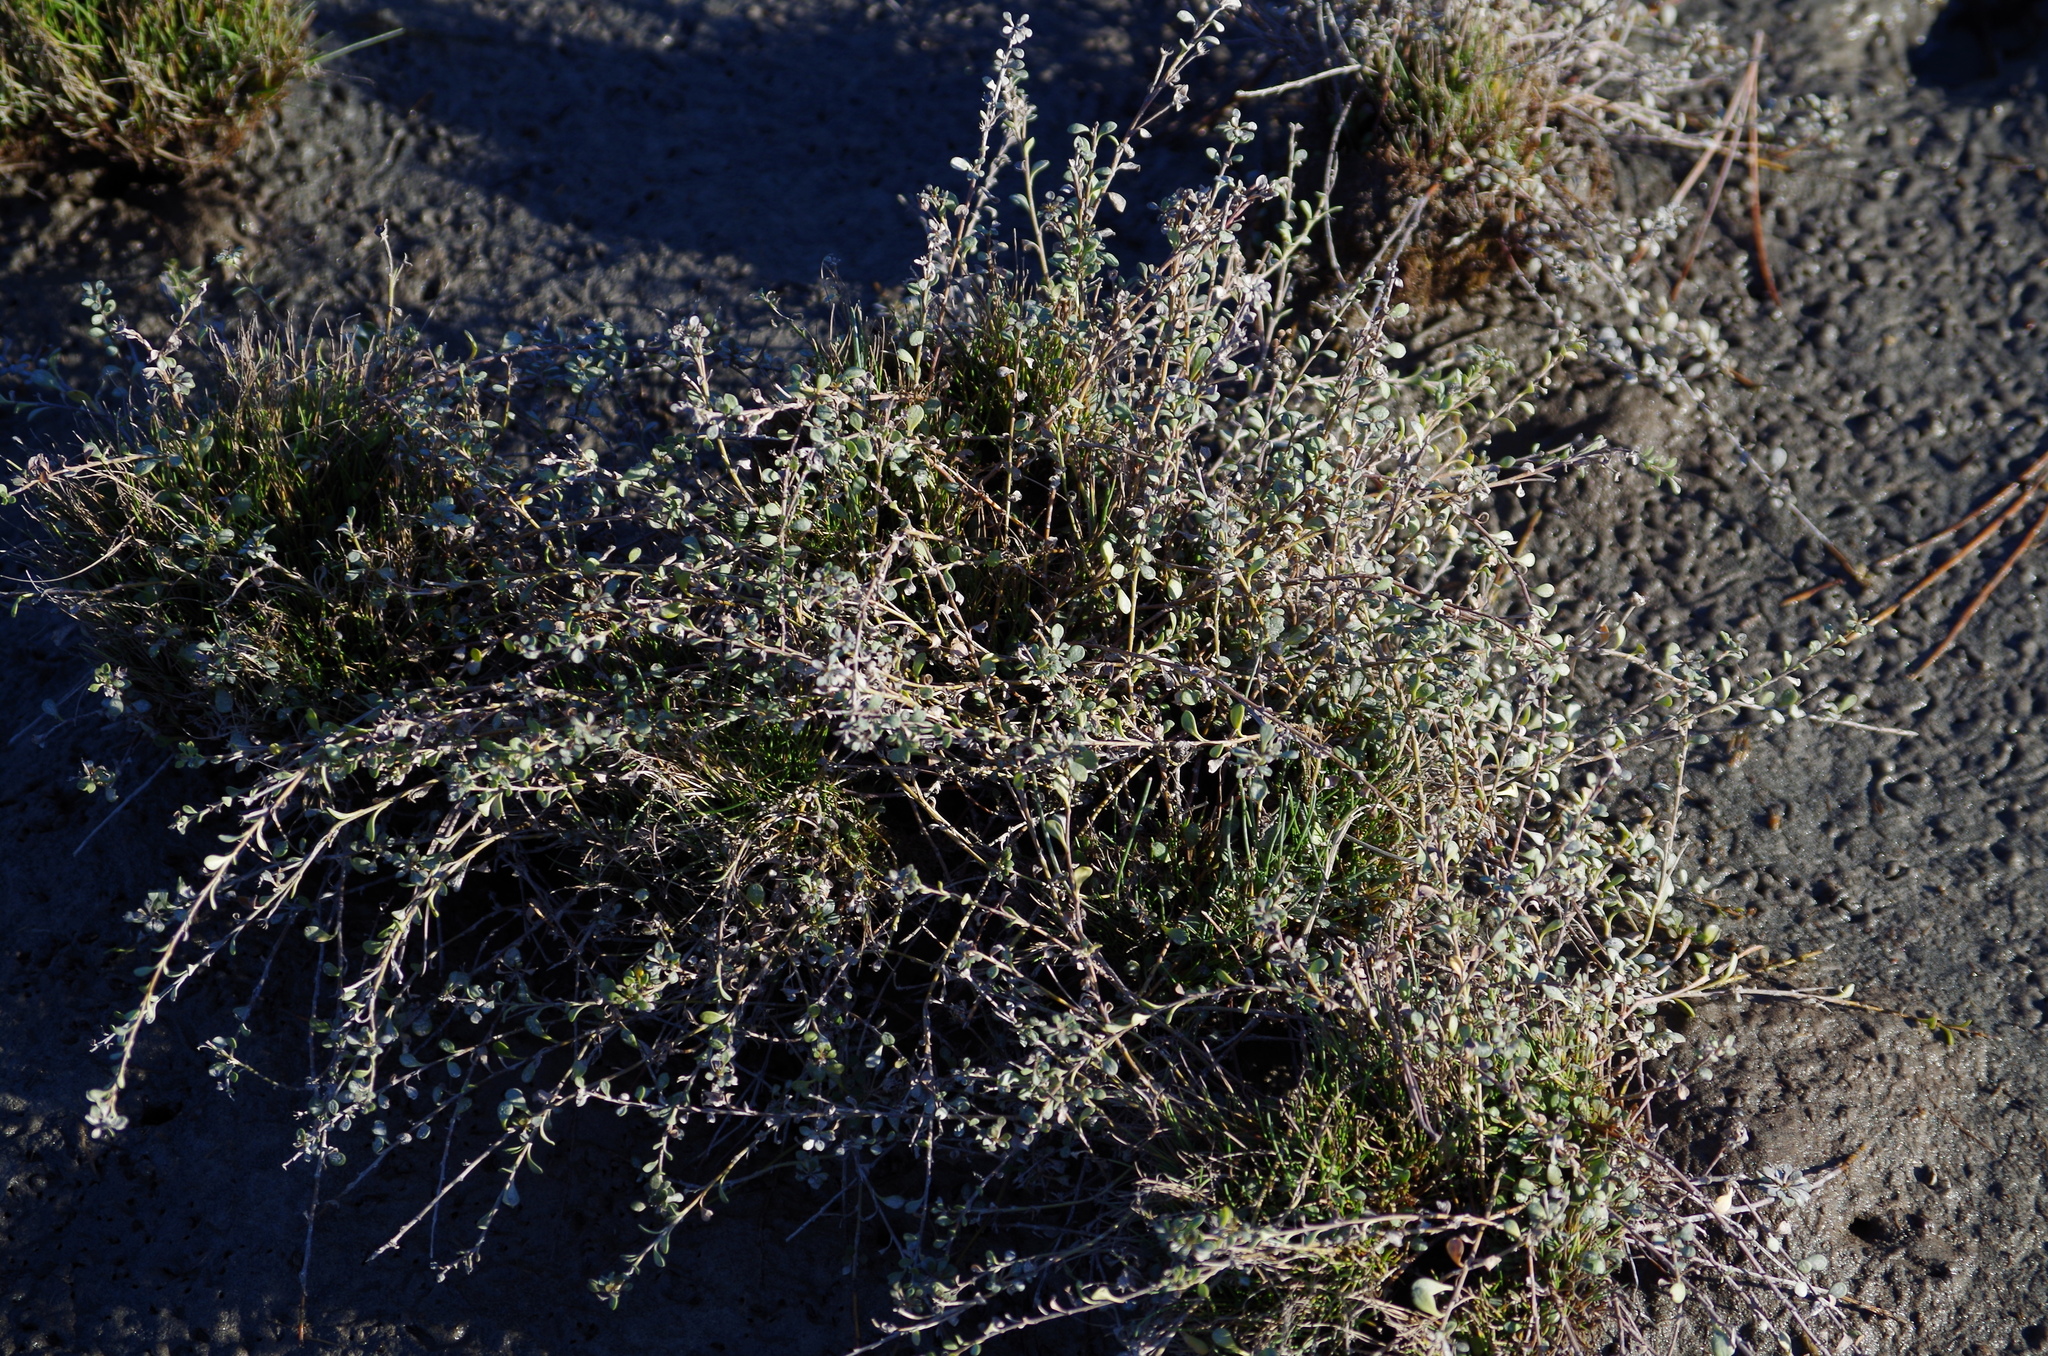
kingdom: Plantae
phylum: Tracheophyta
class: Magnoliopsida
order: Ericales
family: Primulaceae
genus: Samolus
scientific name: Samolus repens
